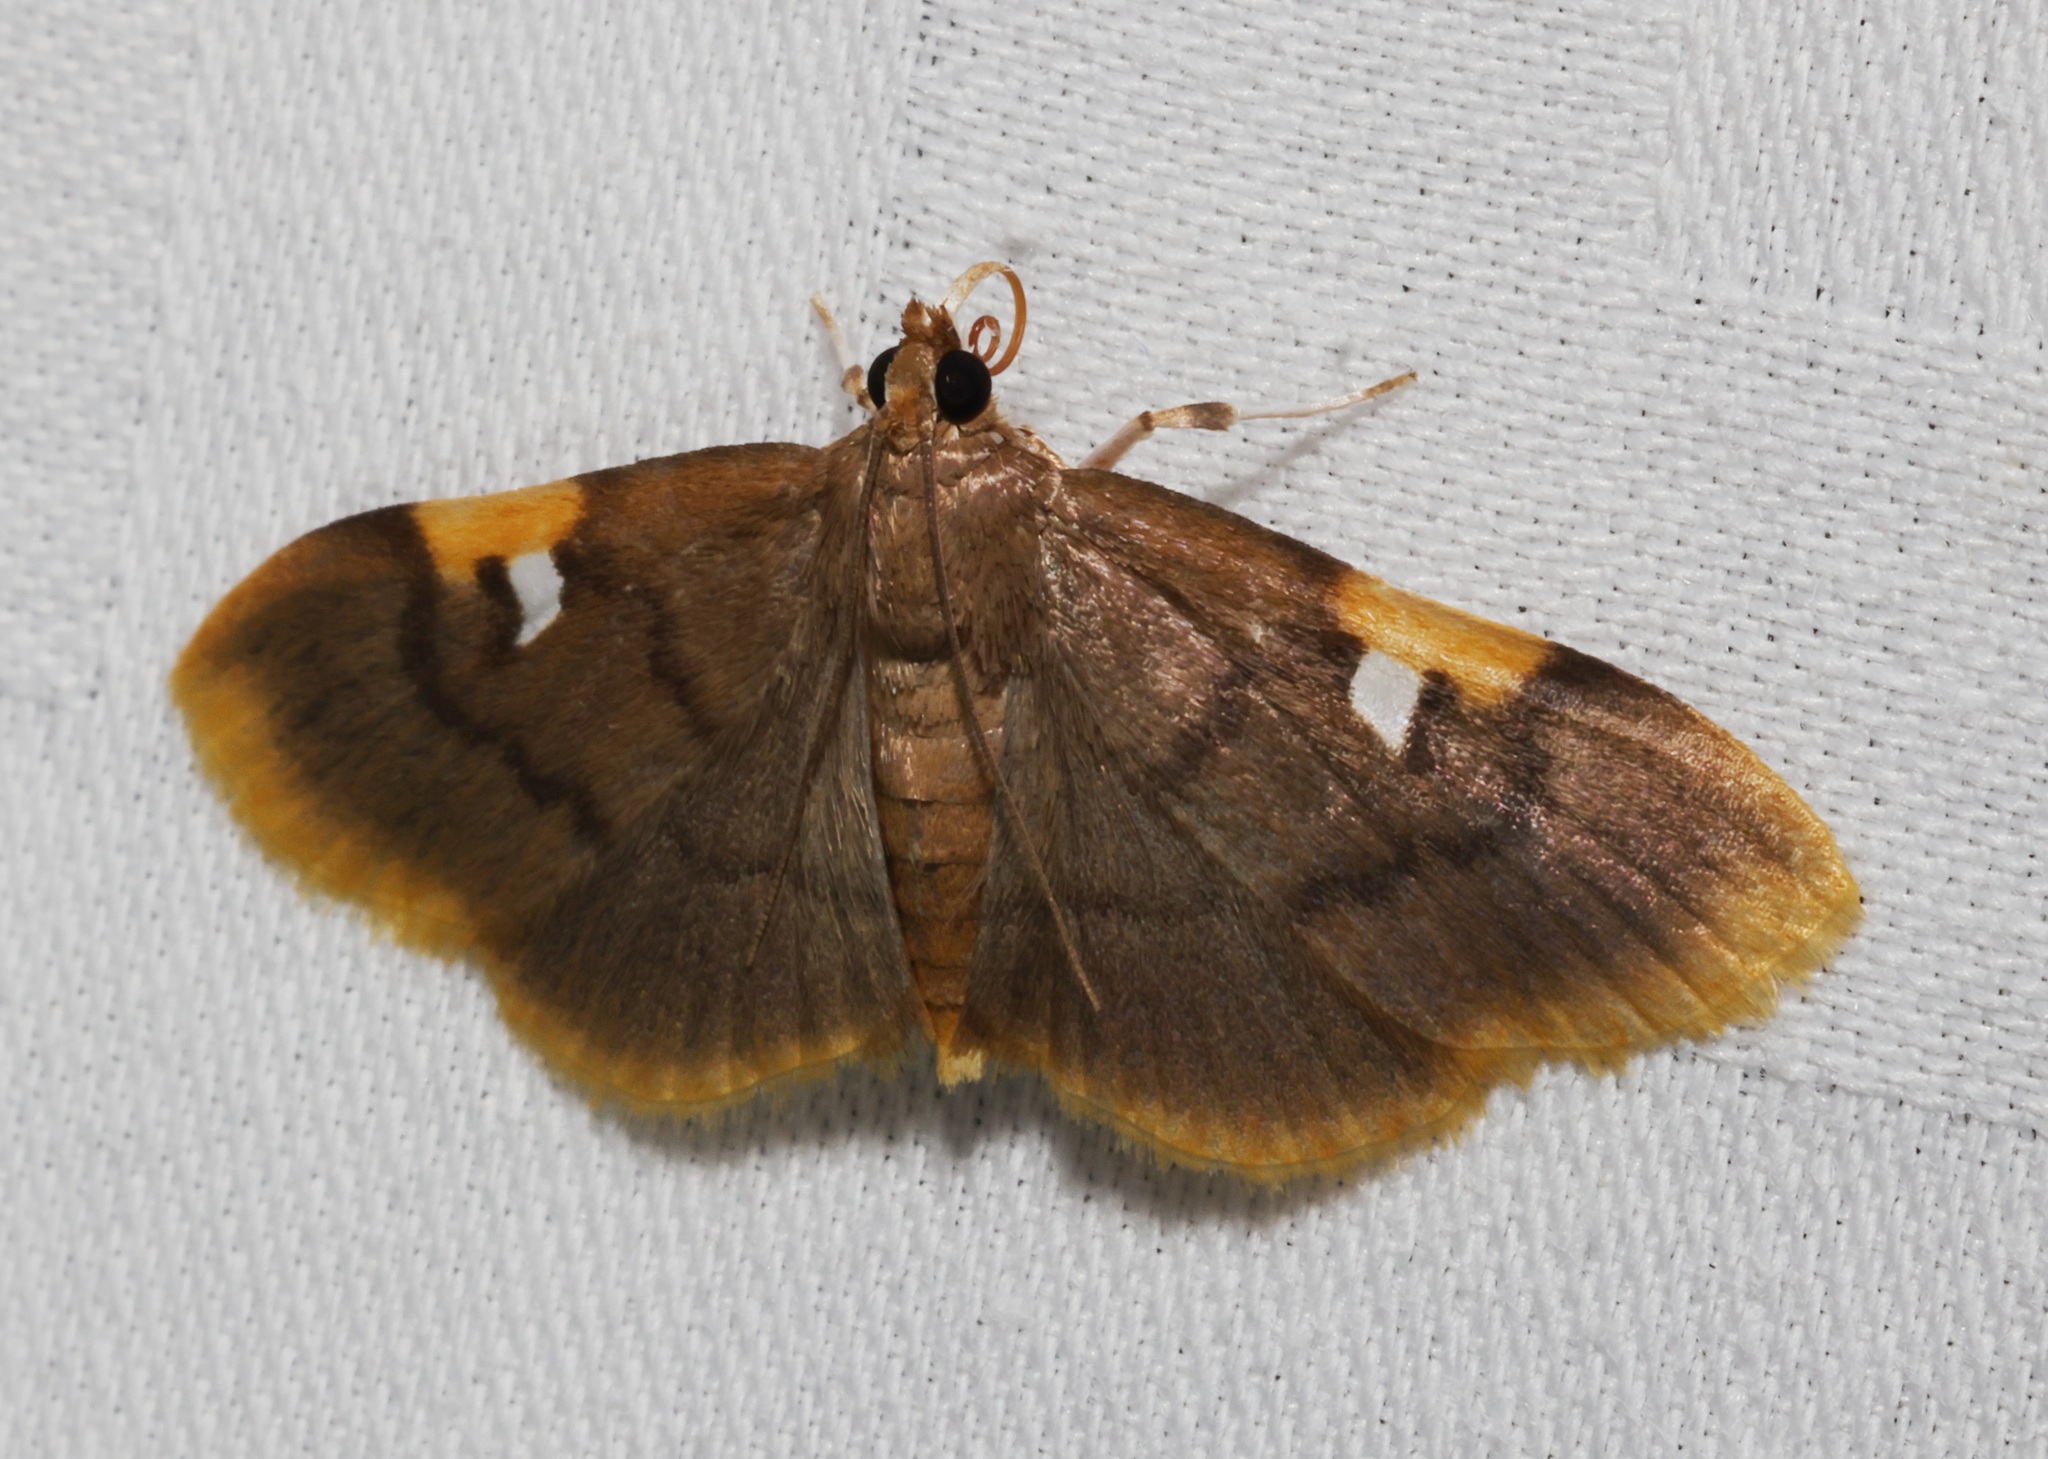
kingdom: Animalia
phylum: Arthropoda
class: Insecta
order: Lepidoptera
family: Crambidae
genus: Callibotys
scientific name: Callibotys wilemani
